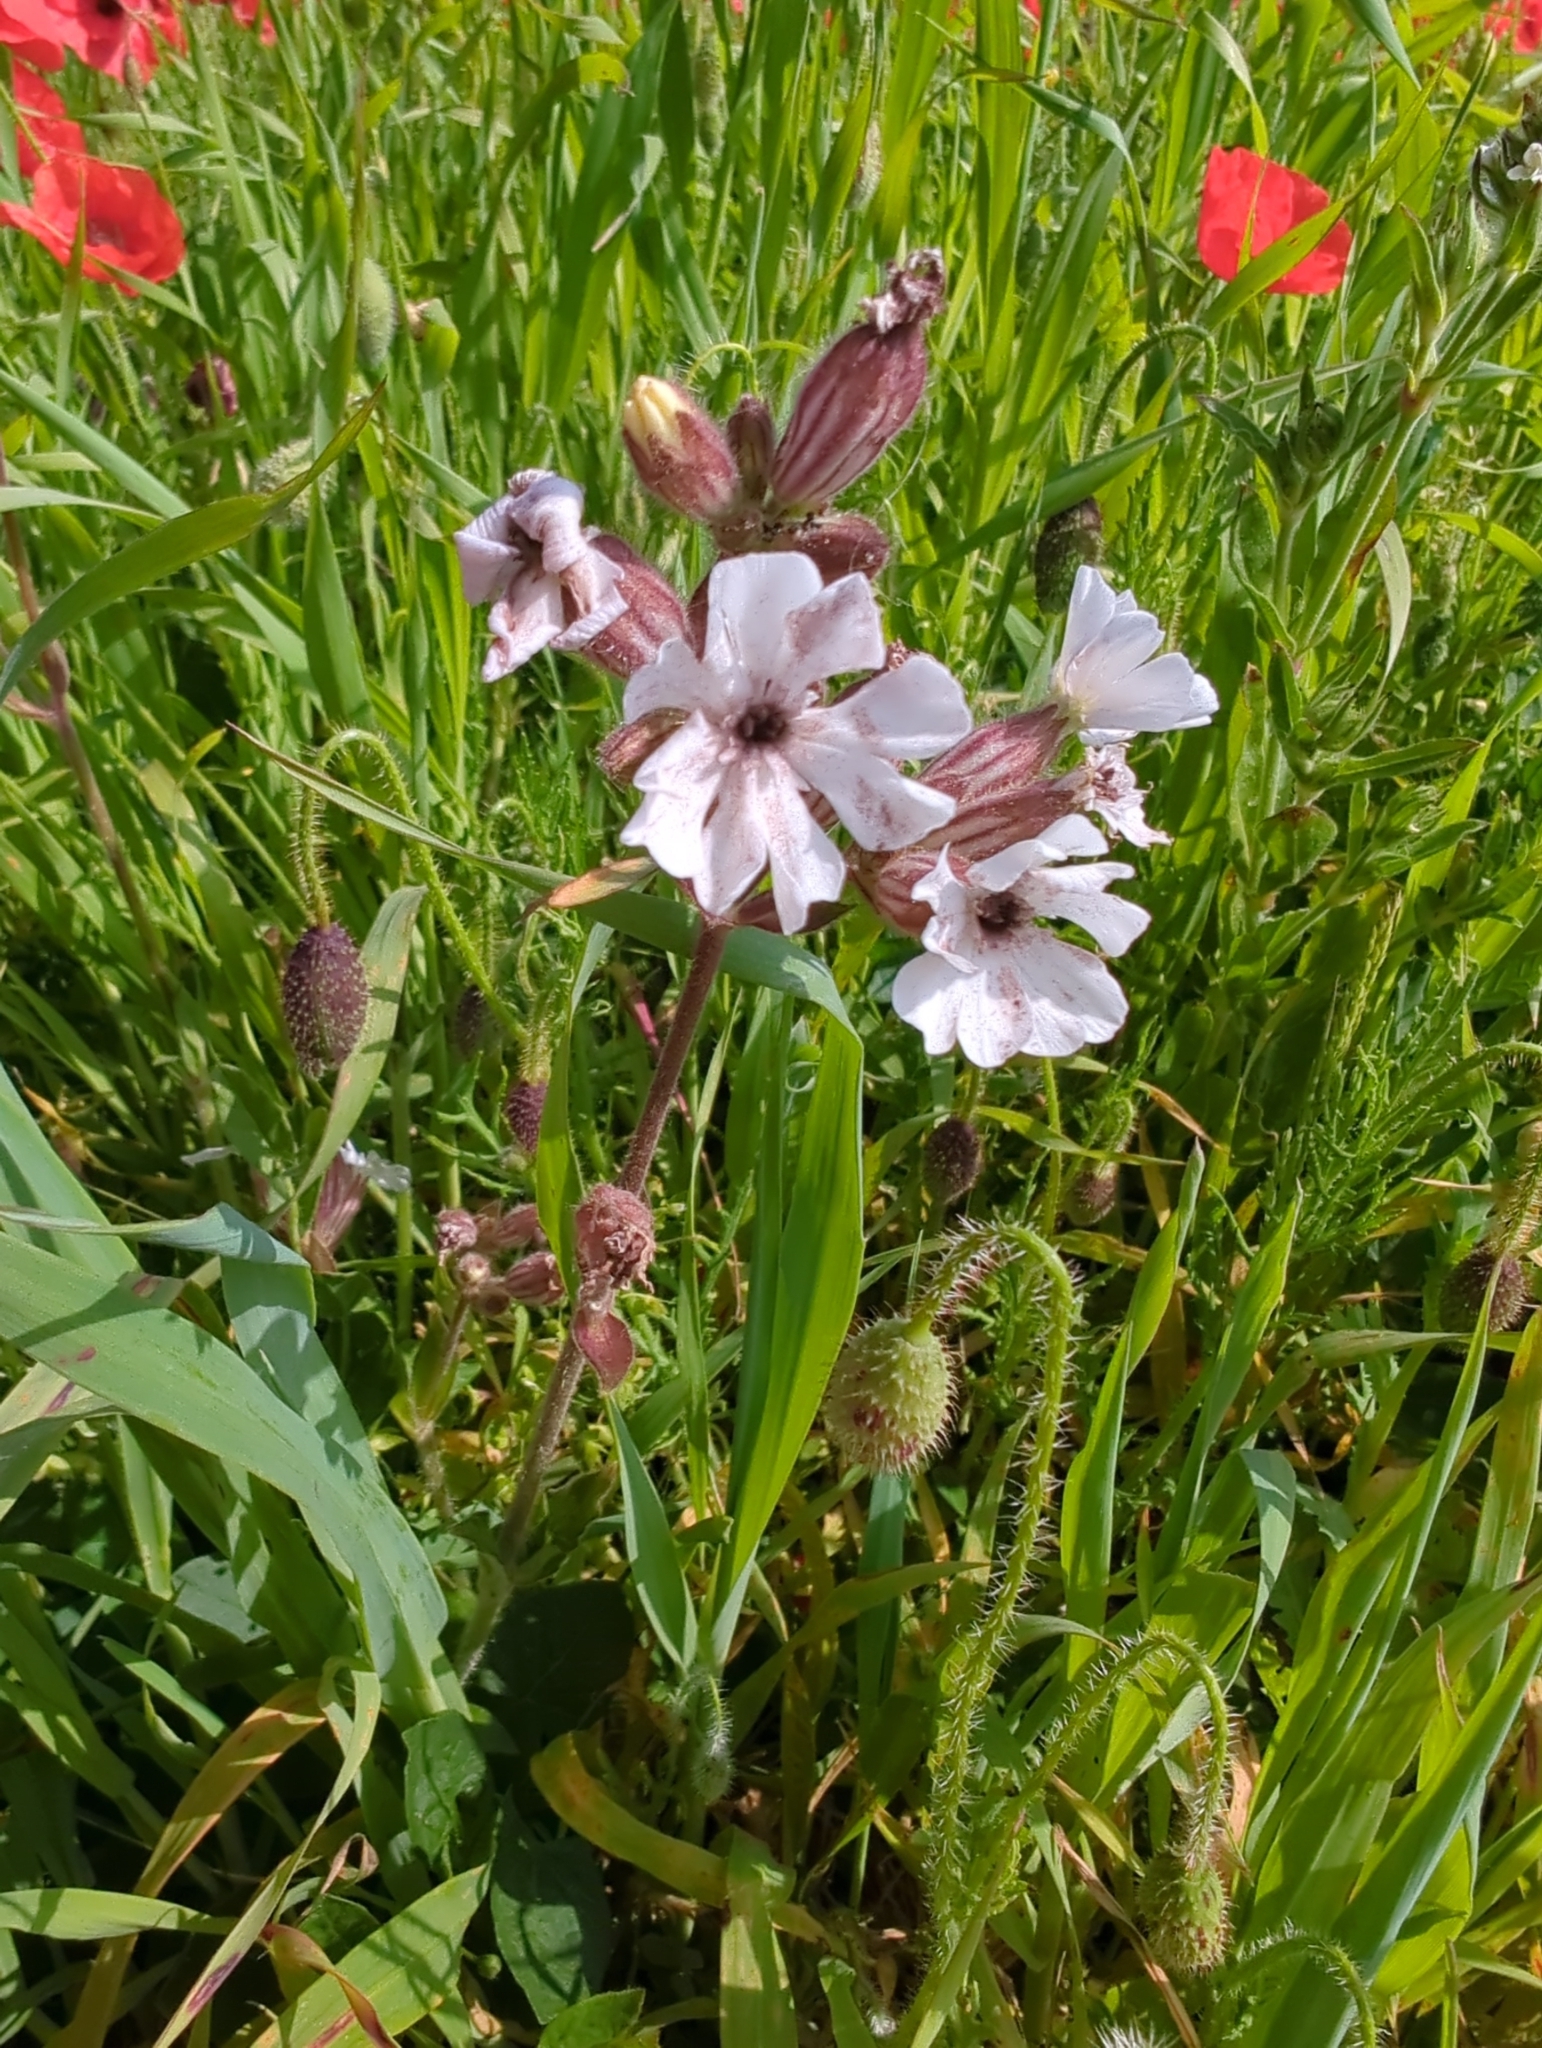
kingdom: Fungi
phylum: Basidiomycota
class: Microbotryomycetes
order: Microbotryales
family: Microbotryaceae
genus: Microbotryum
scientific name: Microbotryum lychnidis-dioicae
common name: Campion anther smut
